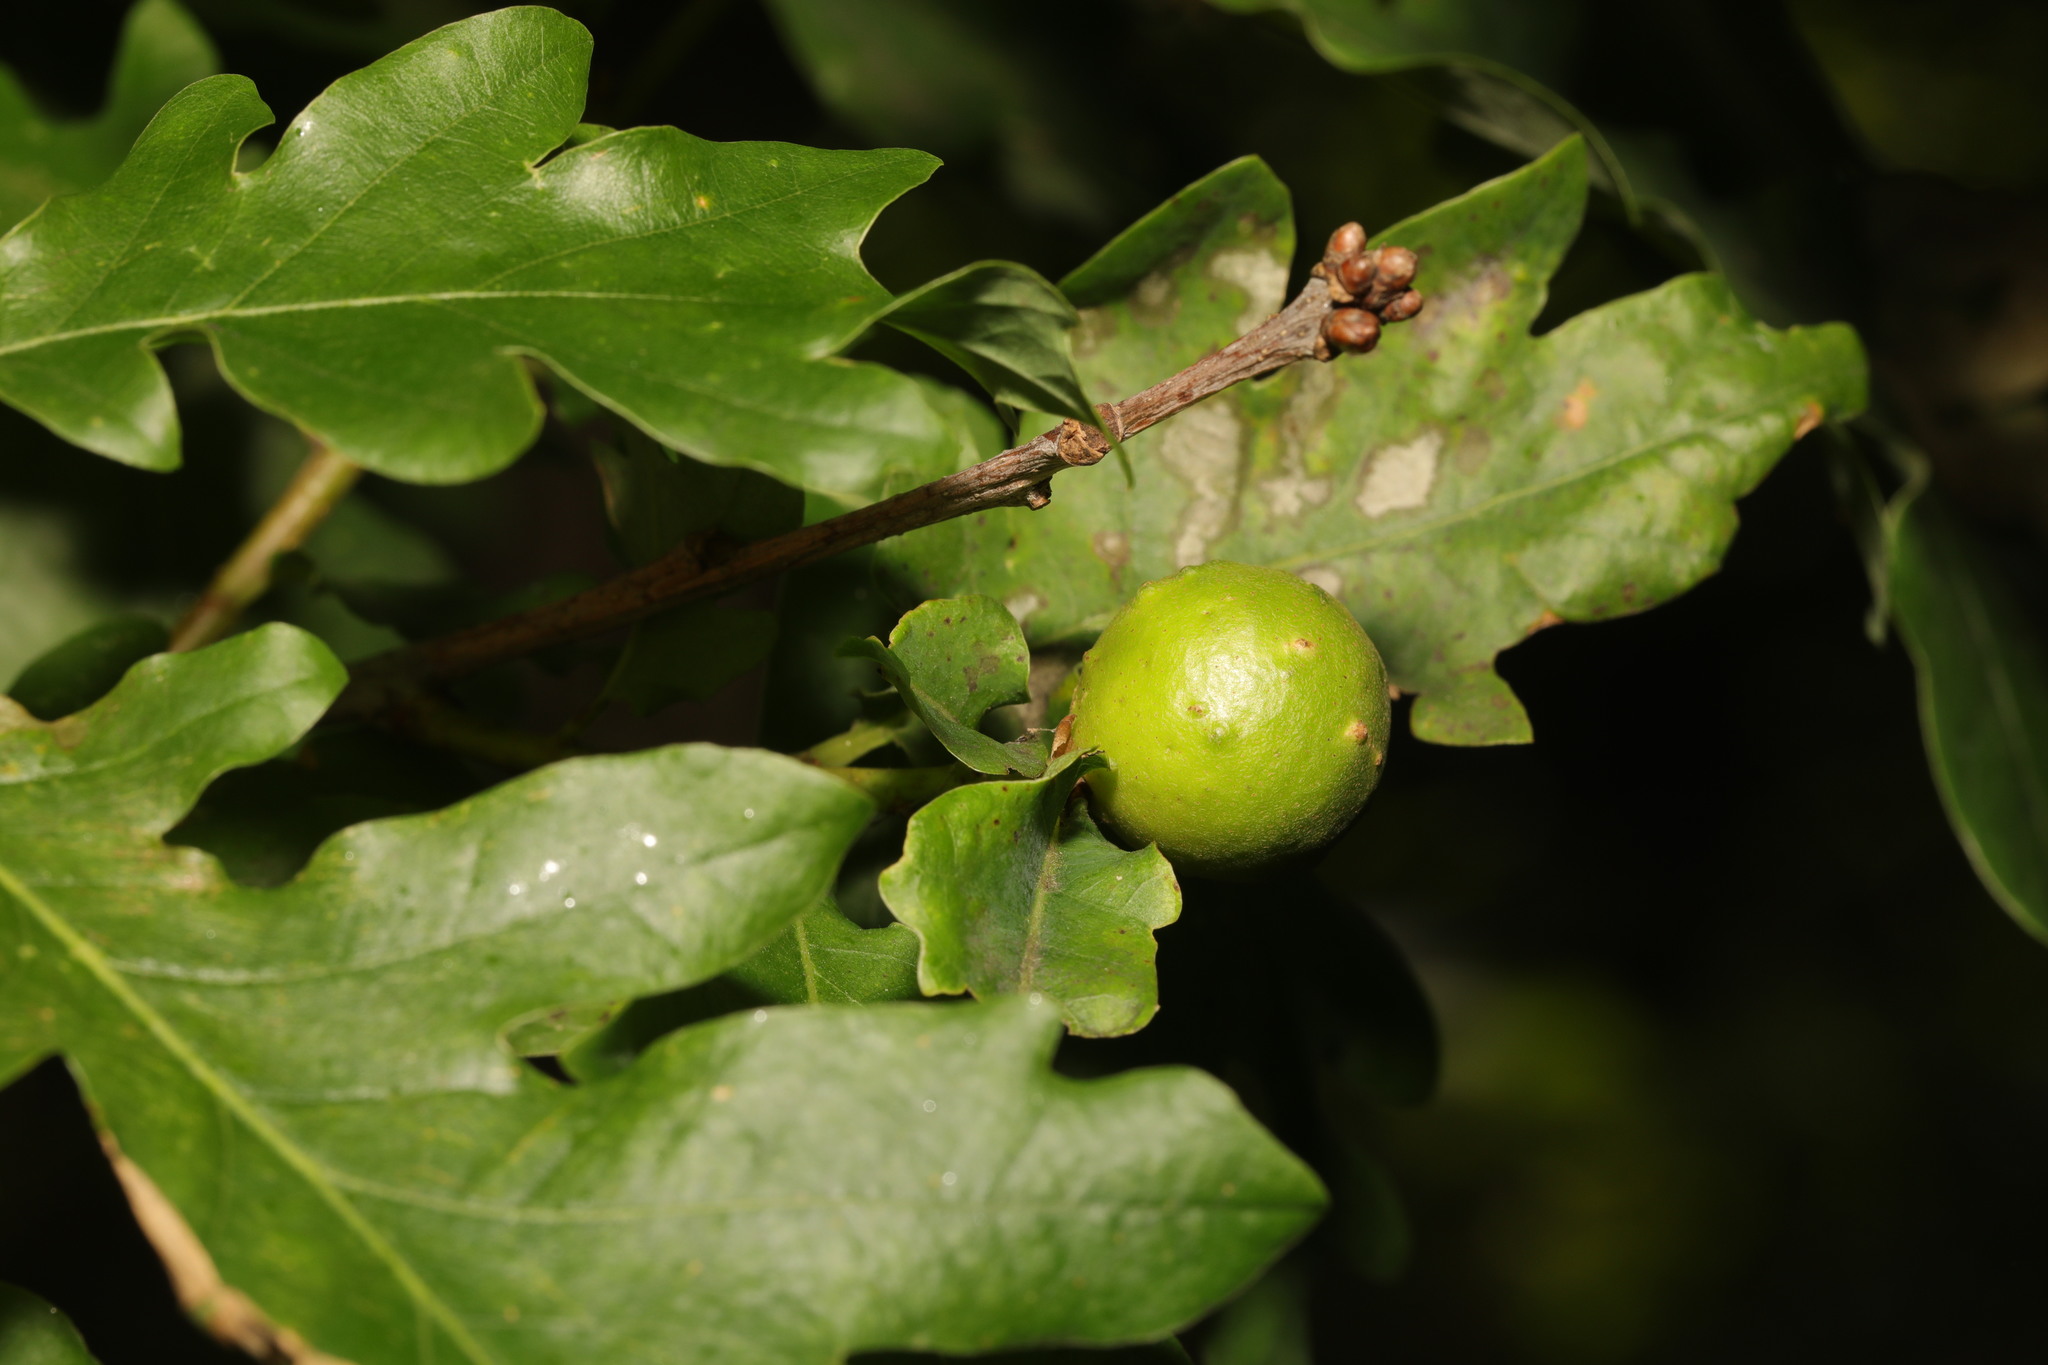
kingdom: Animalia
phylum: Arthropoda
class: Insecta
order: Hymenoptera
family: Cynipidae
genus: Andricus
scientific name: Andricus kollari
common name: Marble gall
